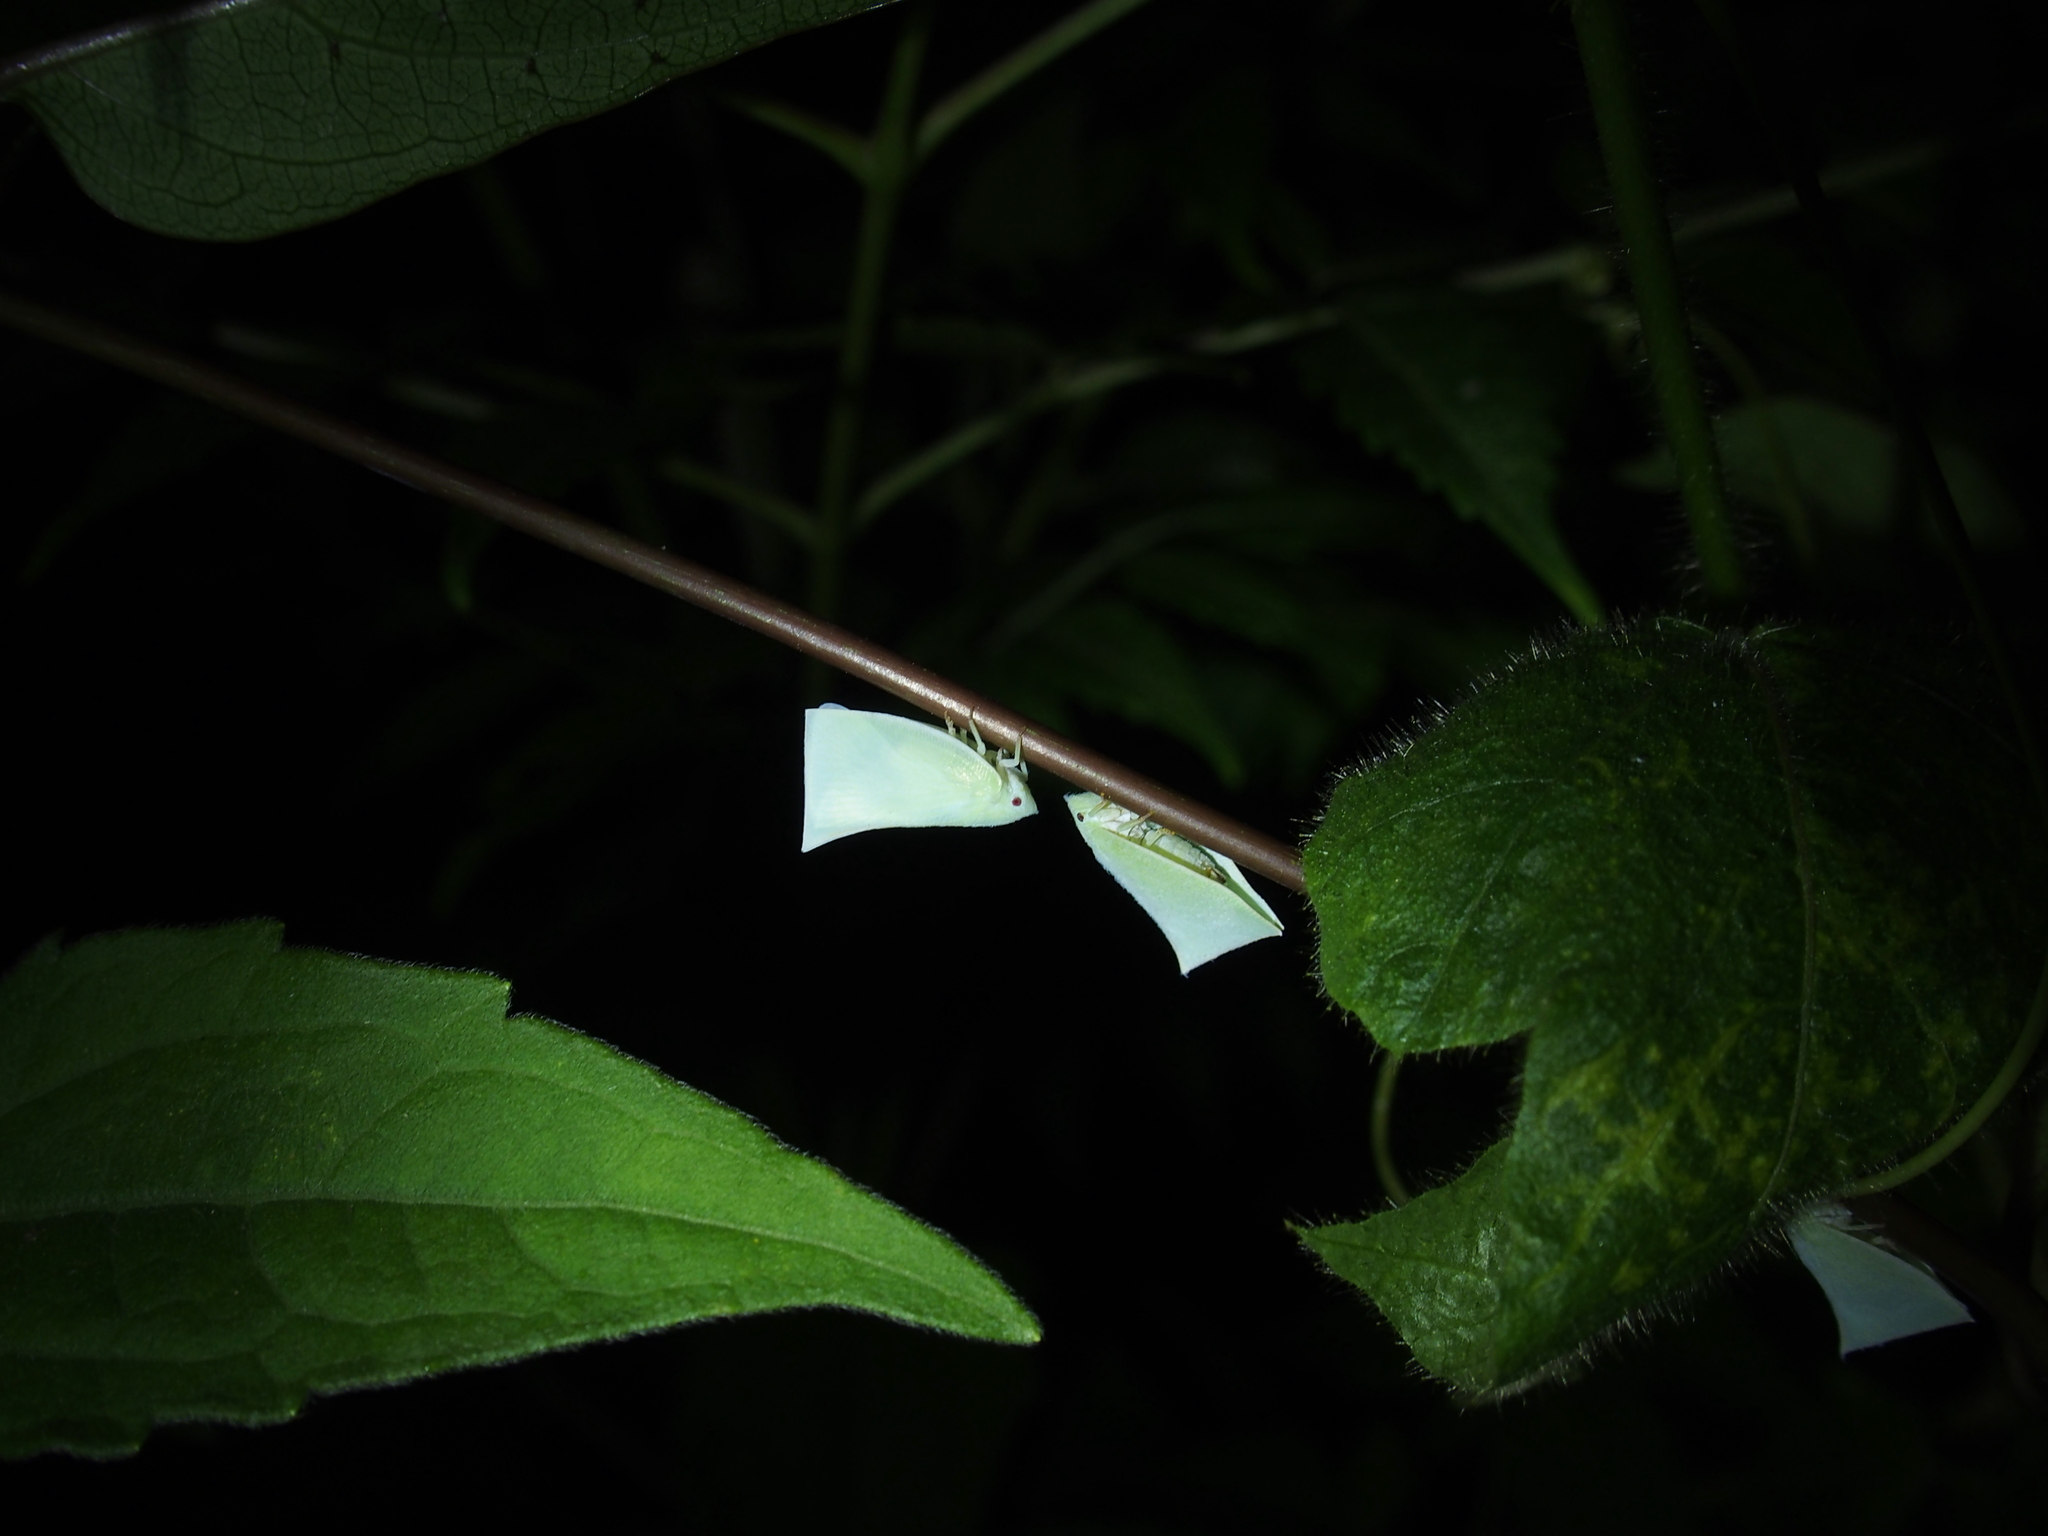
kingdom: Animalia
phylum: Arthropoda
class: Insecta
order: Hemiptera
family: Flatidae
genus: Phylliana
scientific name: Phylliana alba
